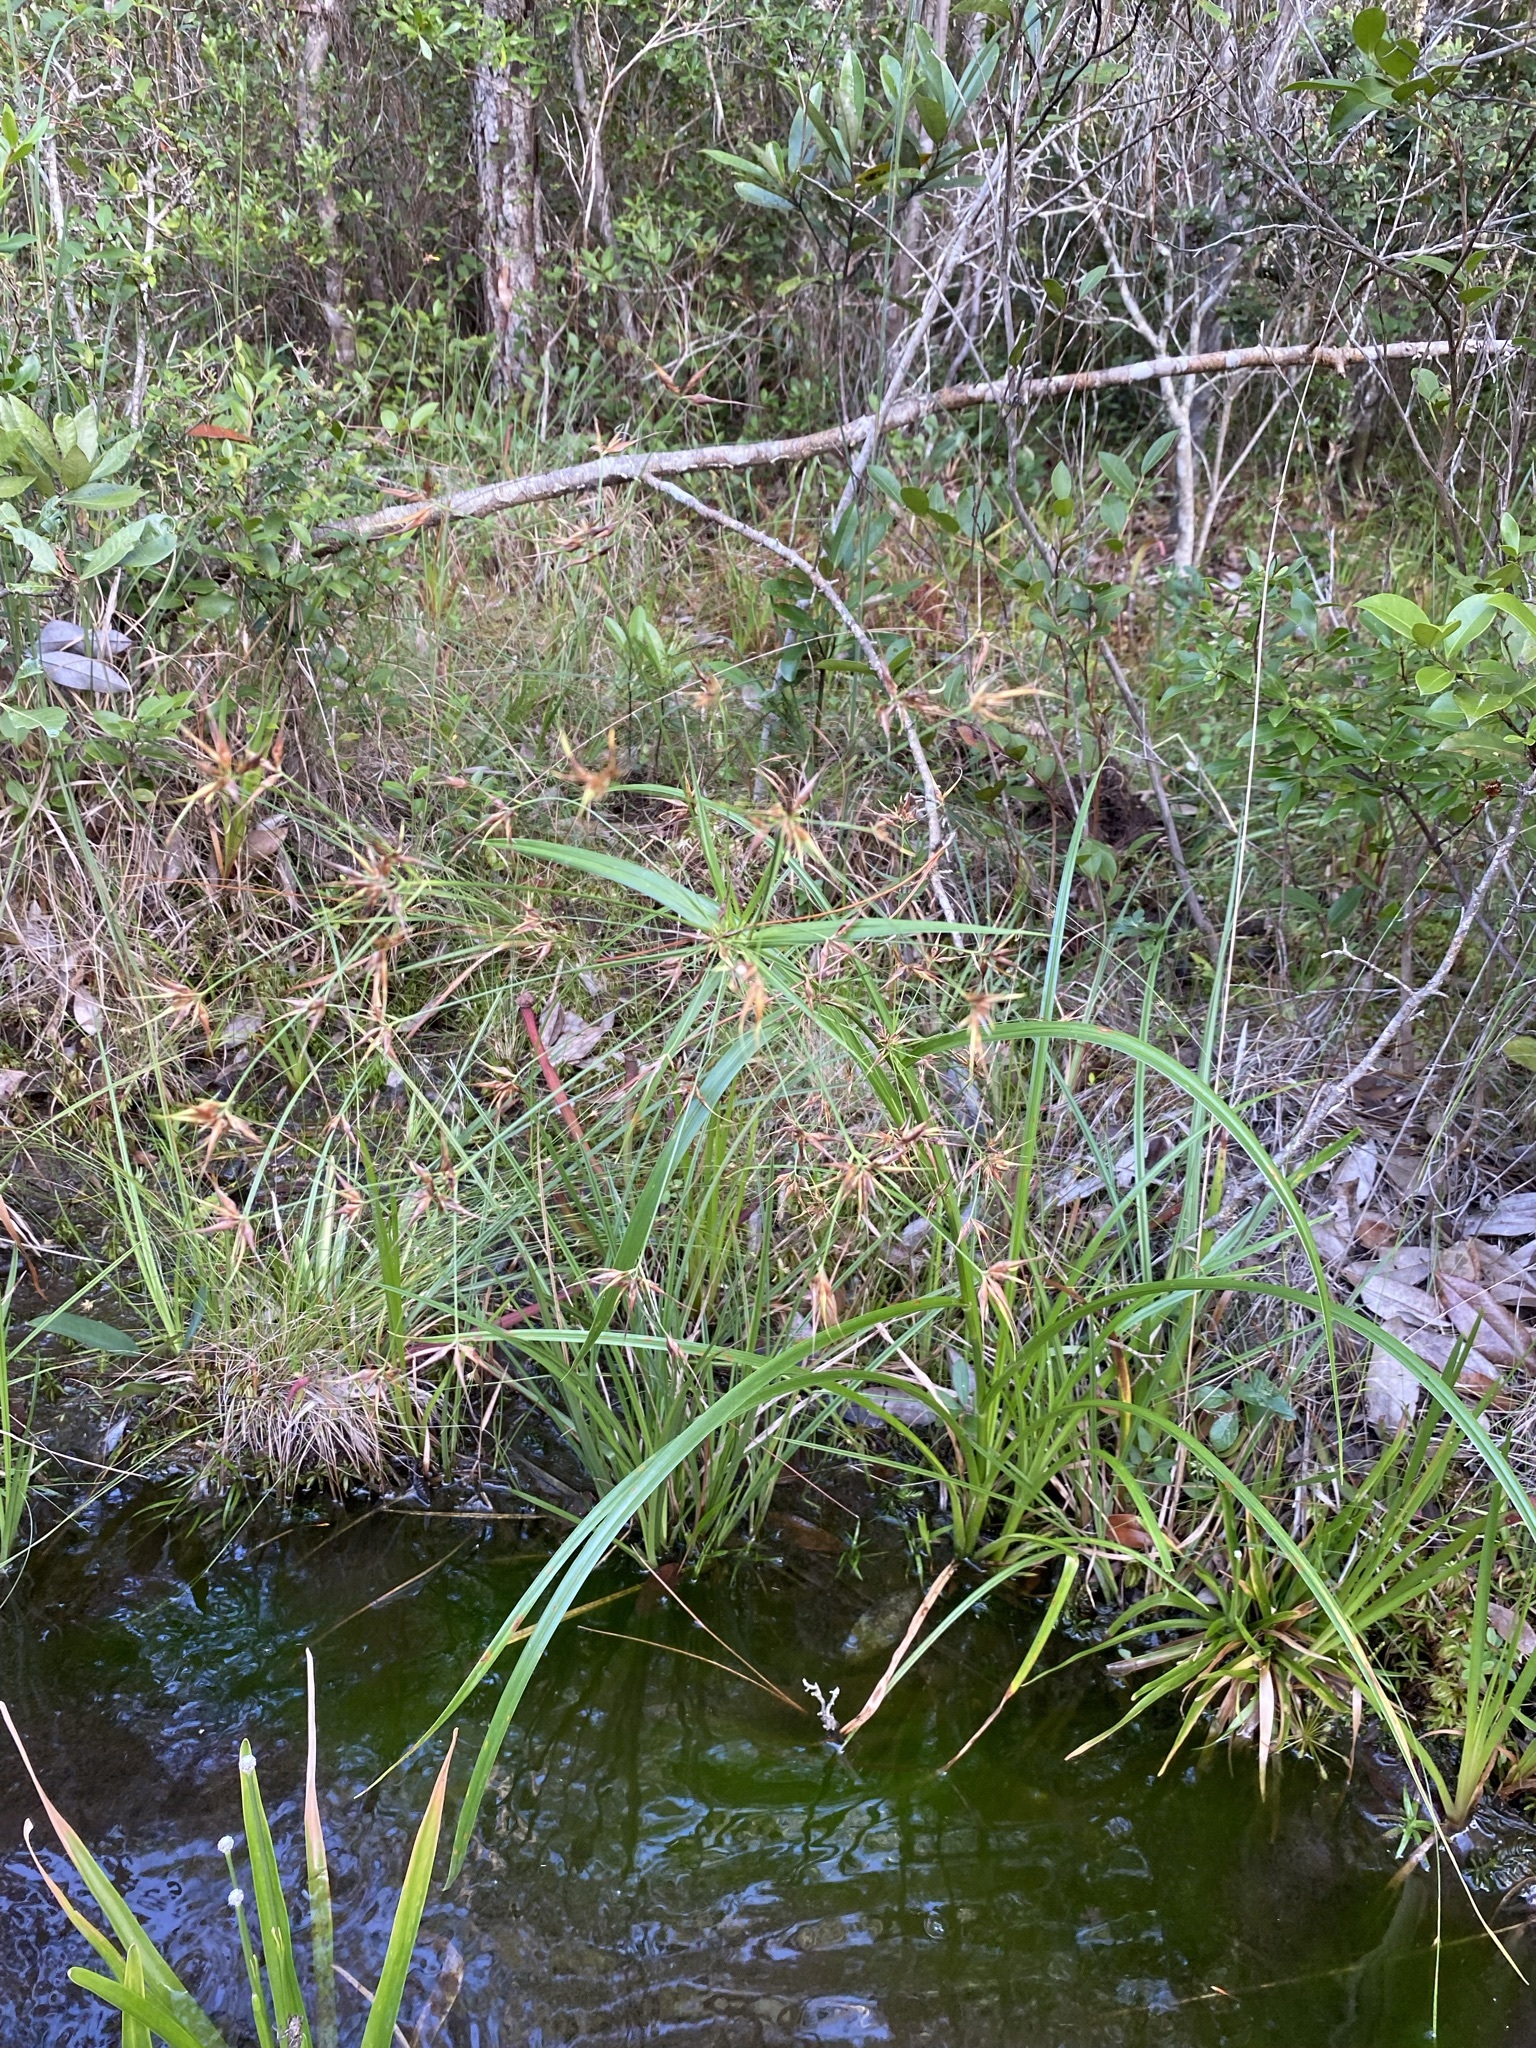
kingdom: Plantae
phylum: Tracheophyta
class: Liliopsida
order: Poales
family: Cyperaceae
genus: Rhynchospora
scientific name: Rhynchospora careyana
